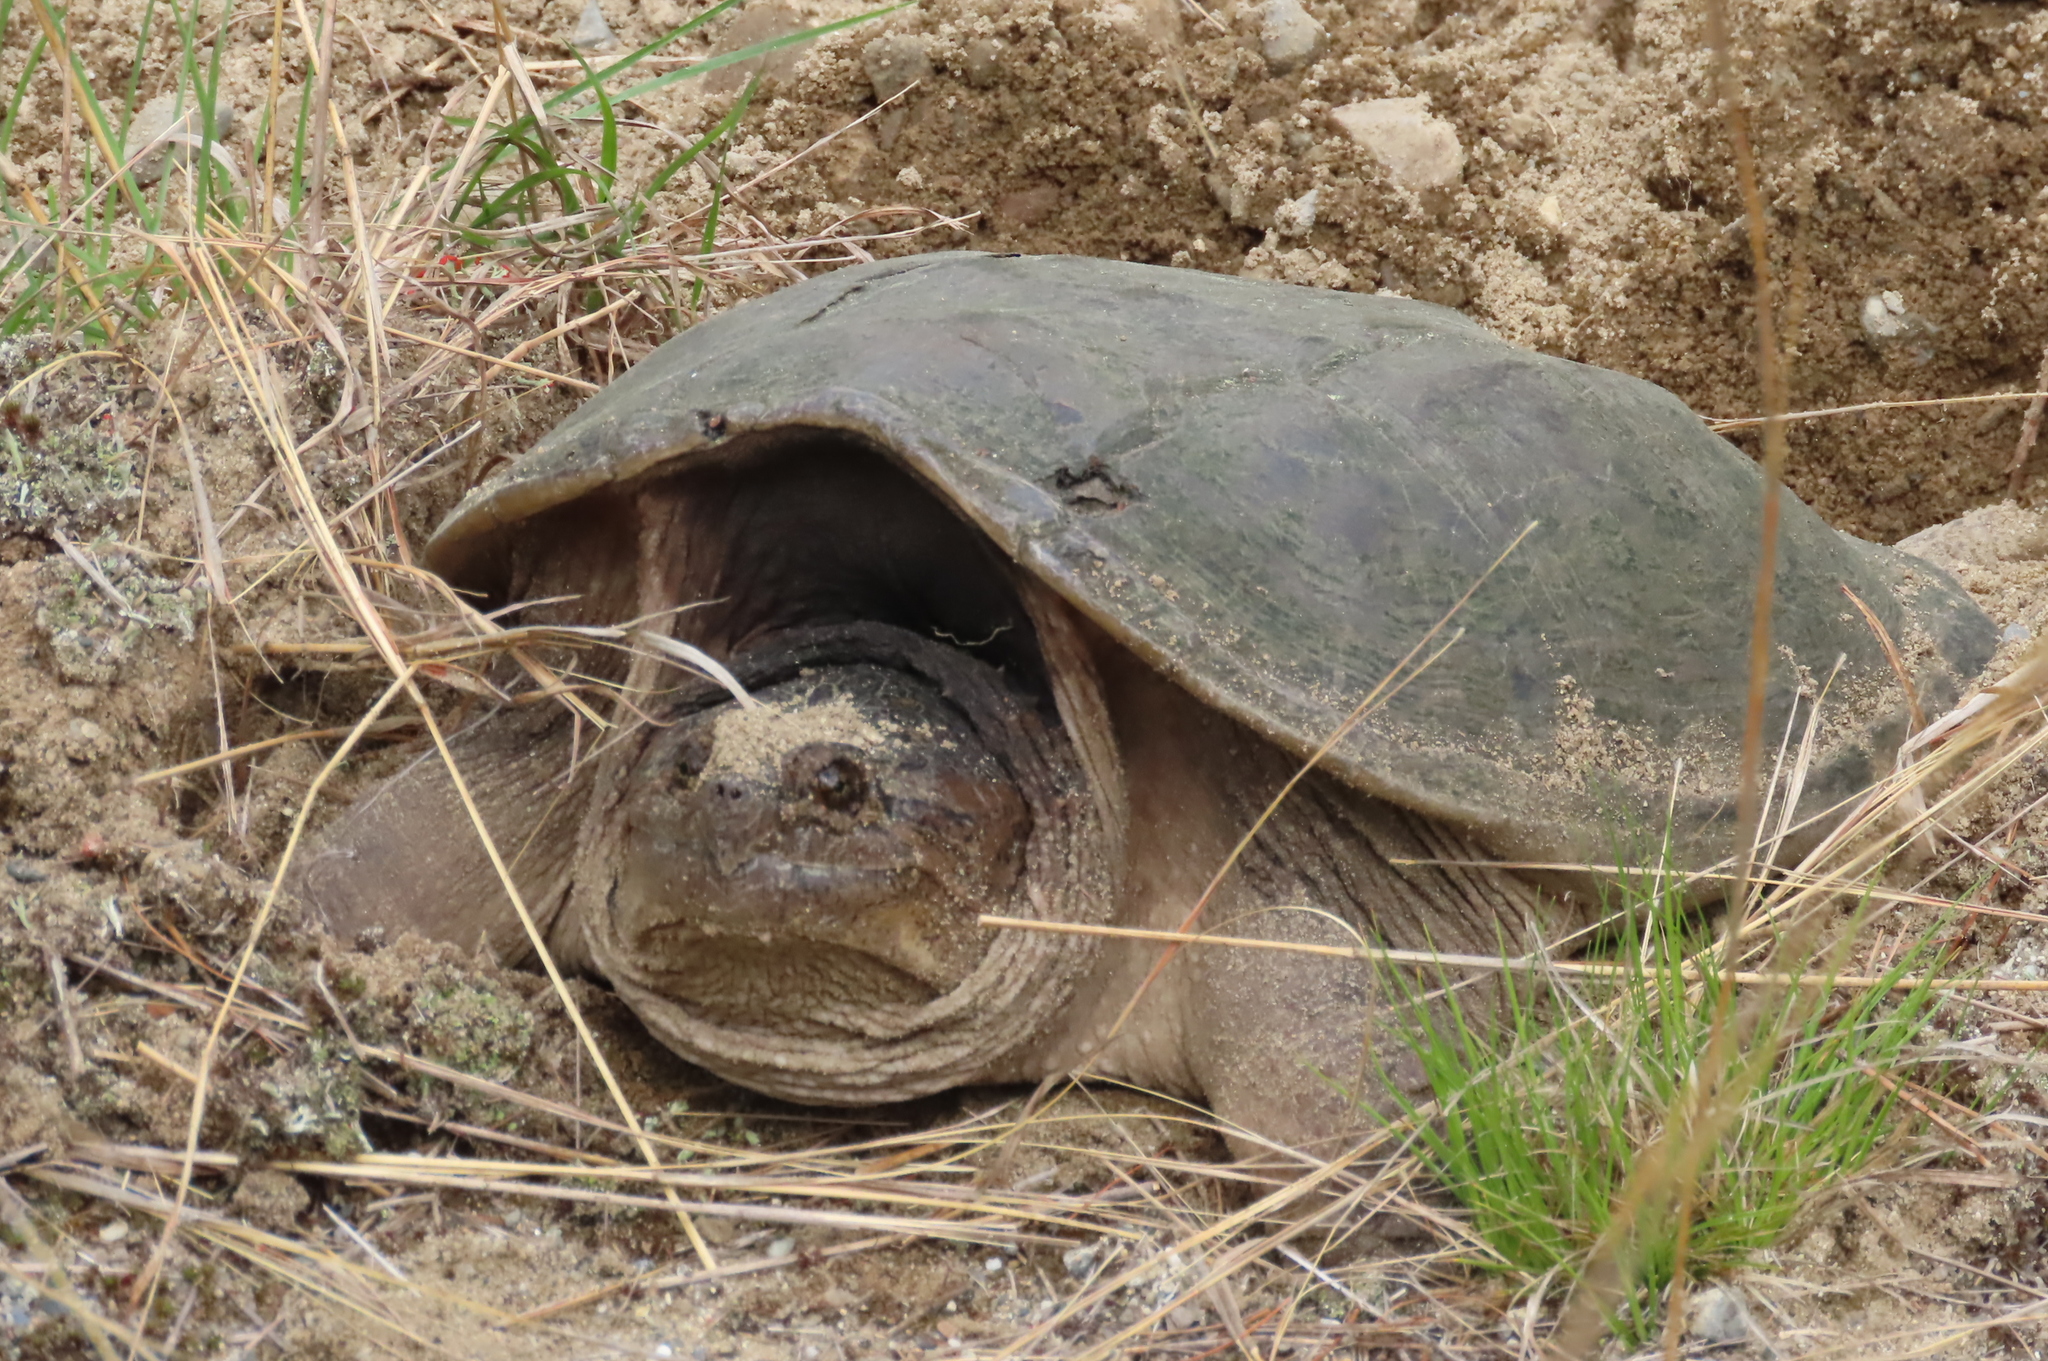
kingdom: Animalia
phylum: Chordata
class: Testudines
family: Chelydridae
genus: Chelydra
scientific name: Chelydra serpentina
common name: Common snapping turtle
